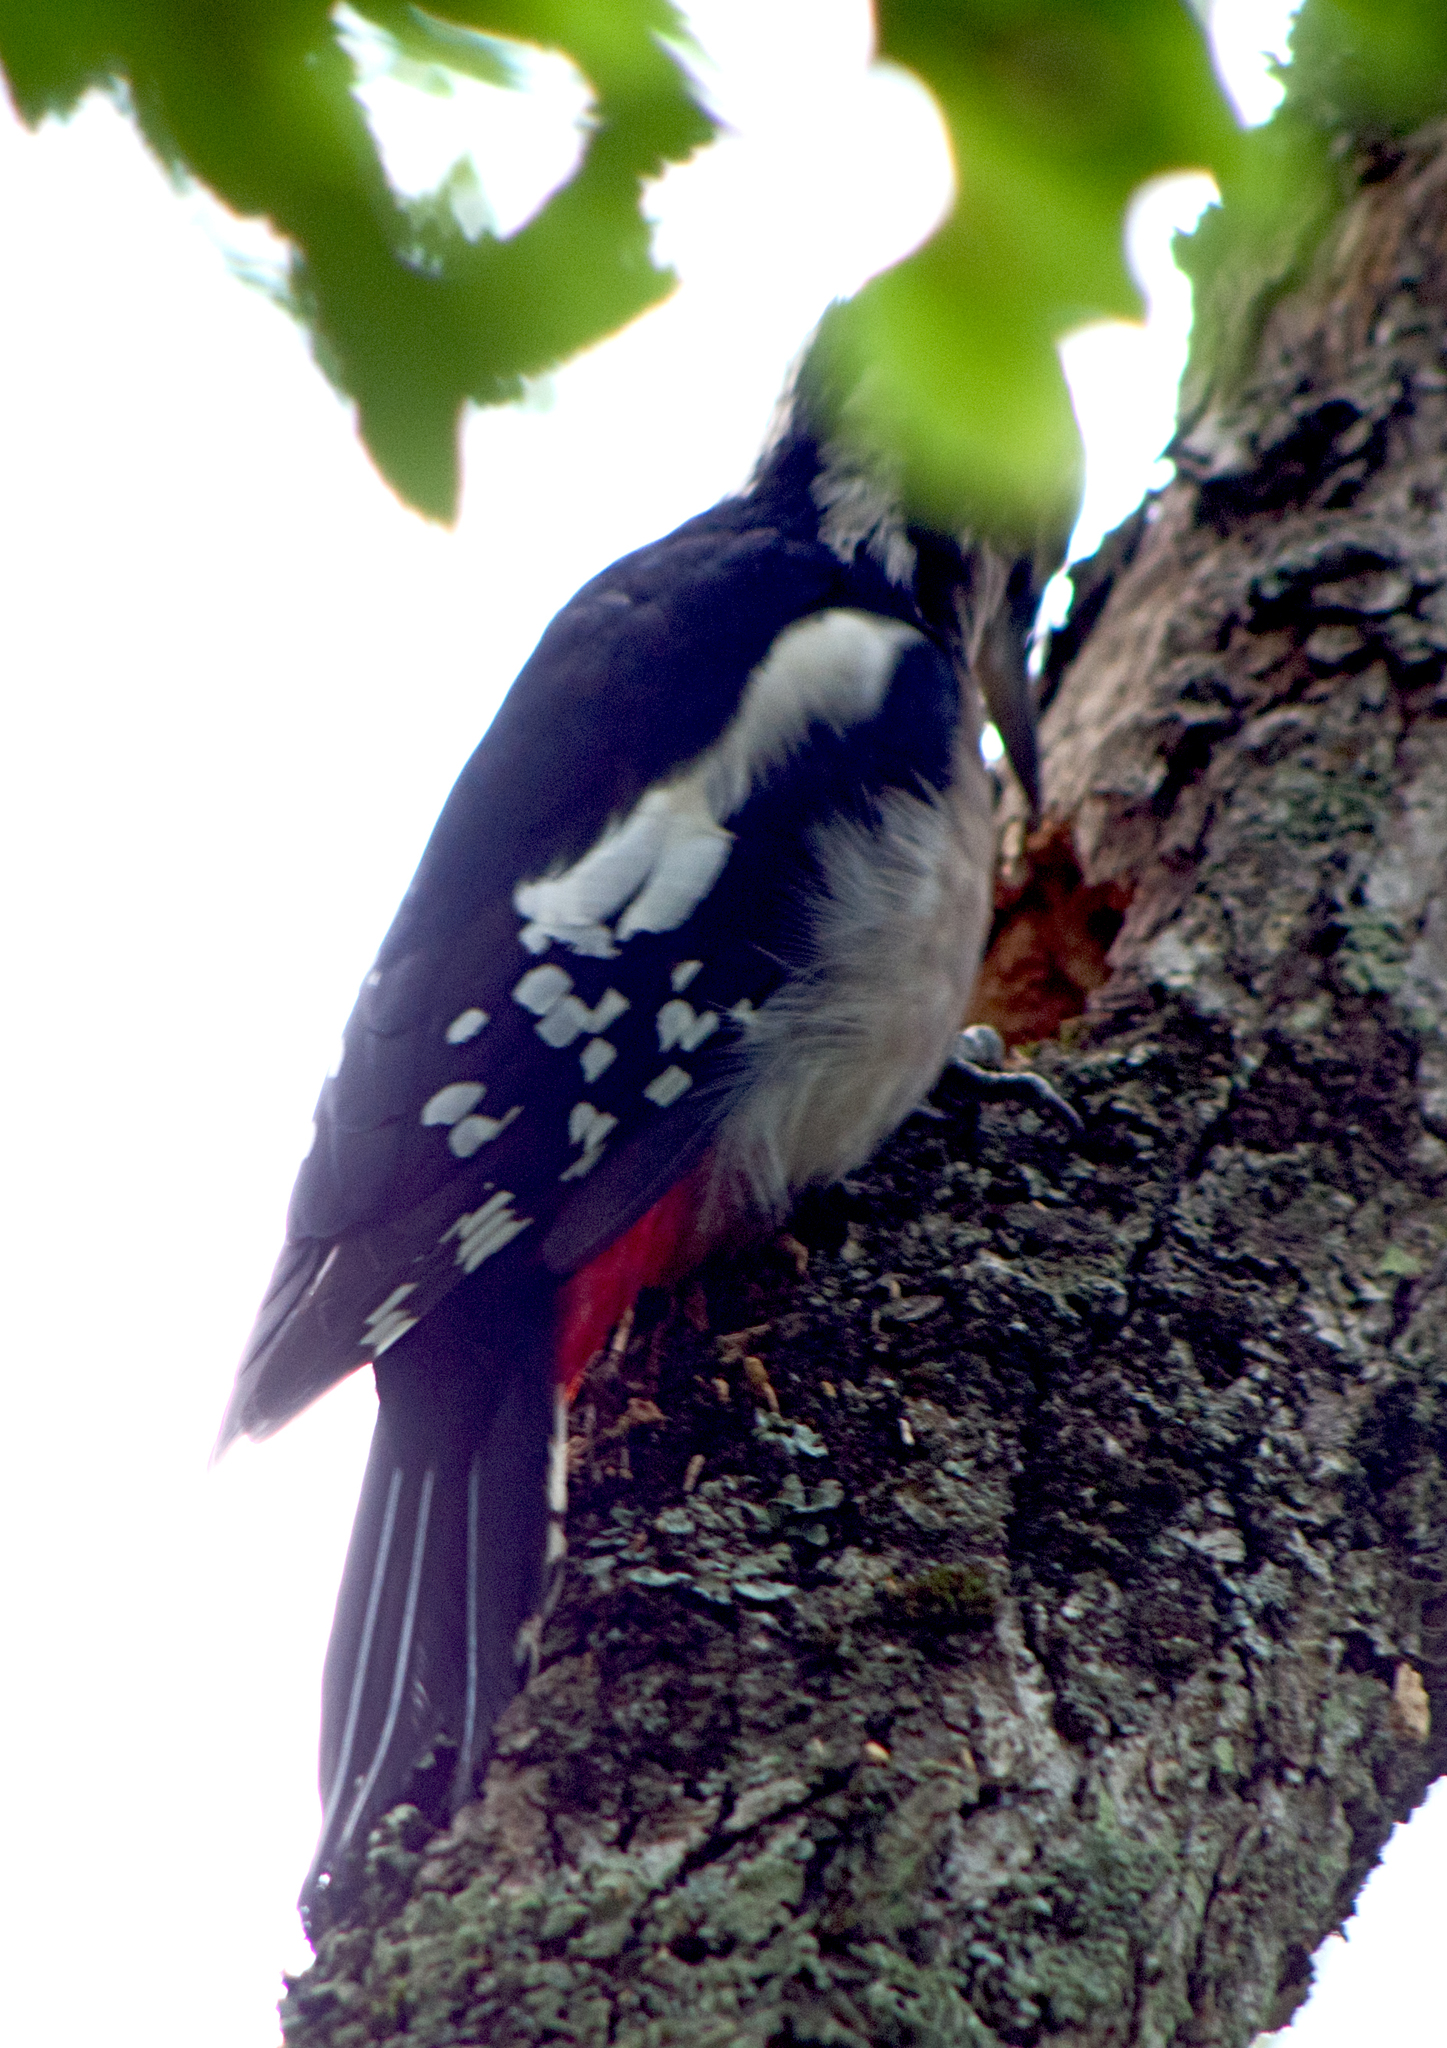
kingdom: Animalia
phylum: Chordata
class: Aves
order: Piciformes
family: Picidae
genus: Dendrocopos
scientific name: Dendrocopos major
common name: Great spotted woodpecker
